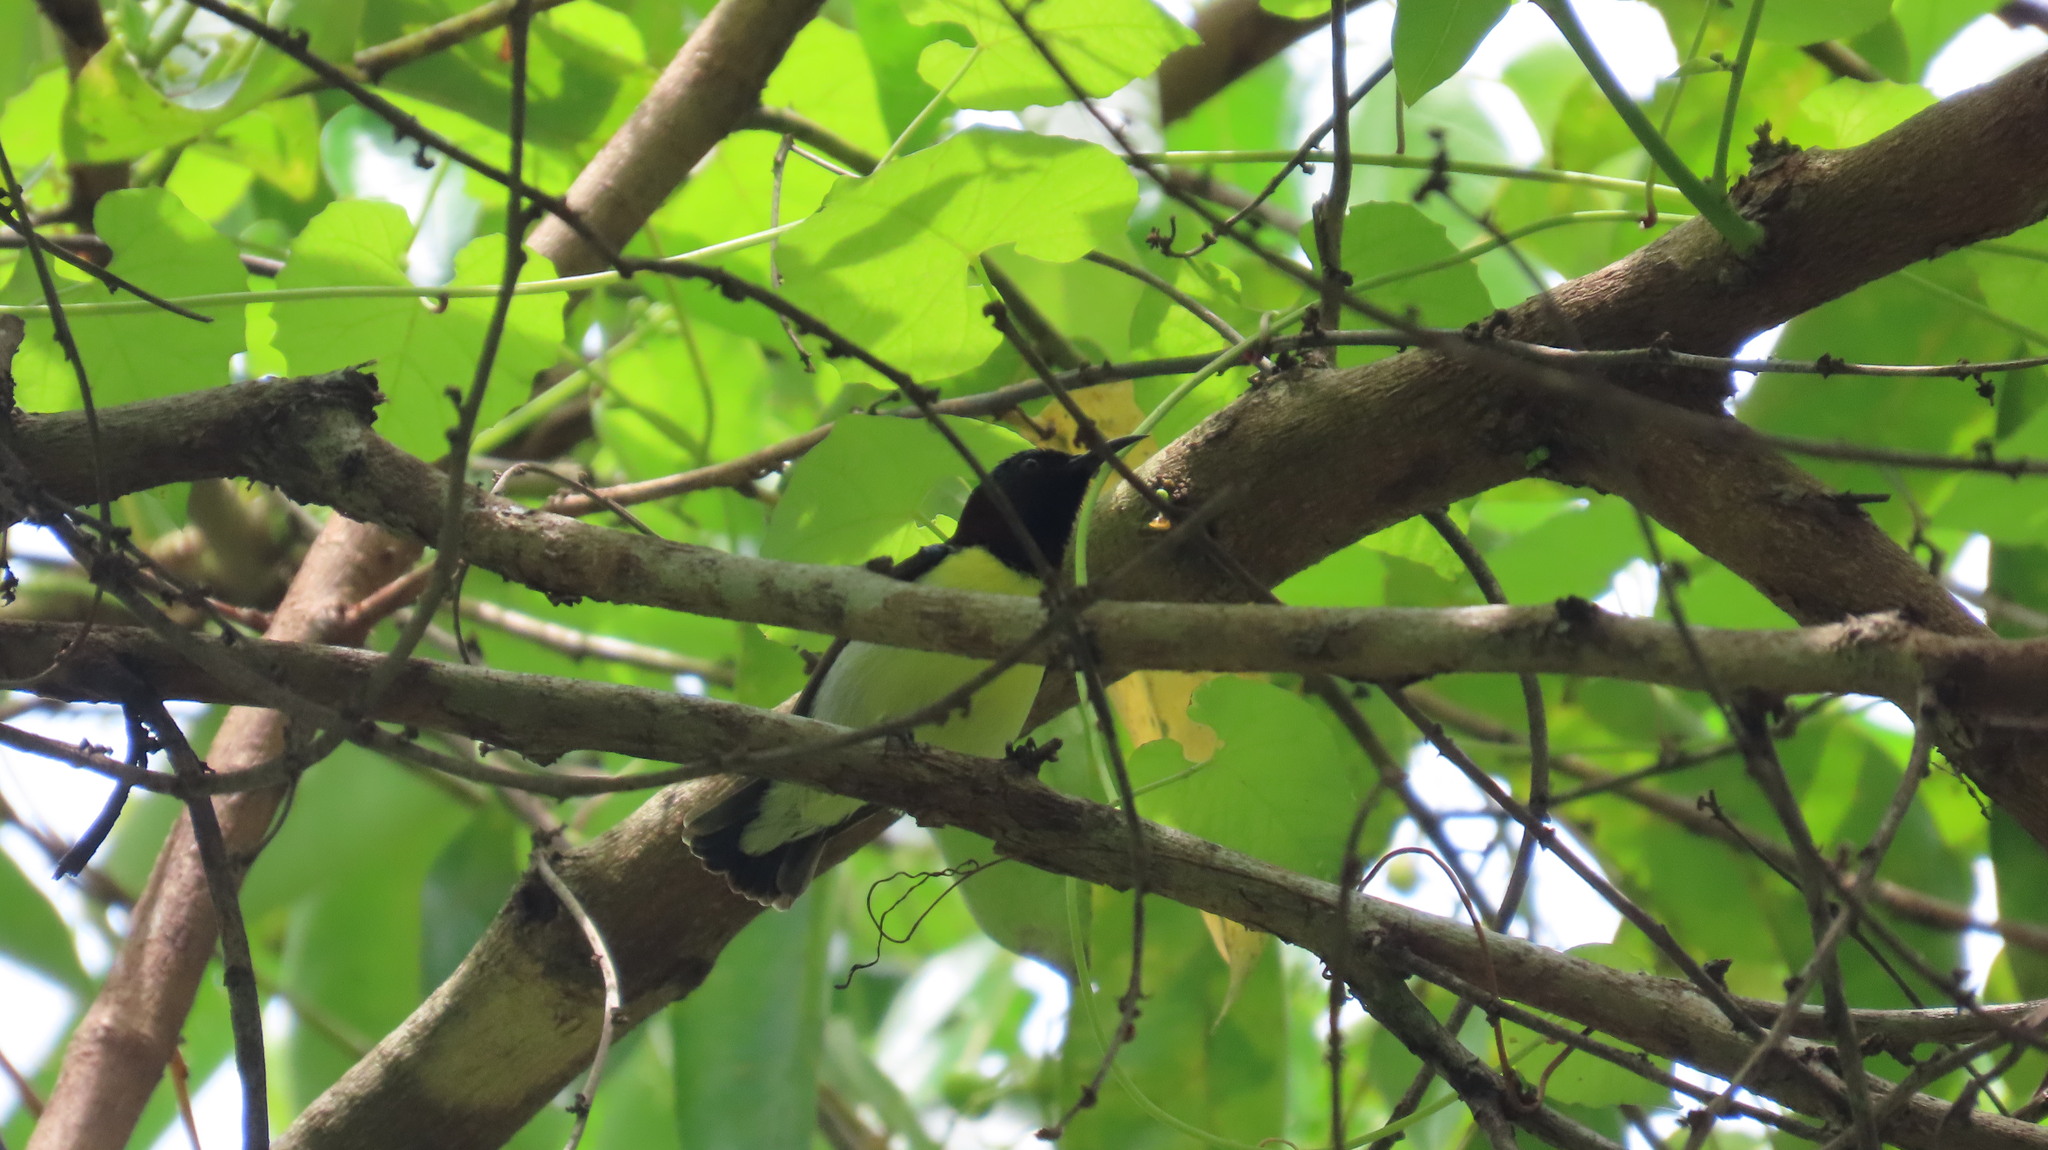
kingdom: Animalia
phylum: Chordata
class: Aves
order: Passeriformes
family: Nectariniidae
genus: Leptocoma
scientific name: Leptocoma zeylonica
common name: Purple-rumped sunbird
